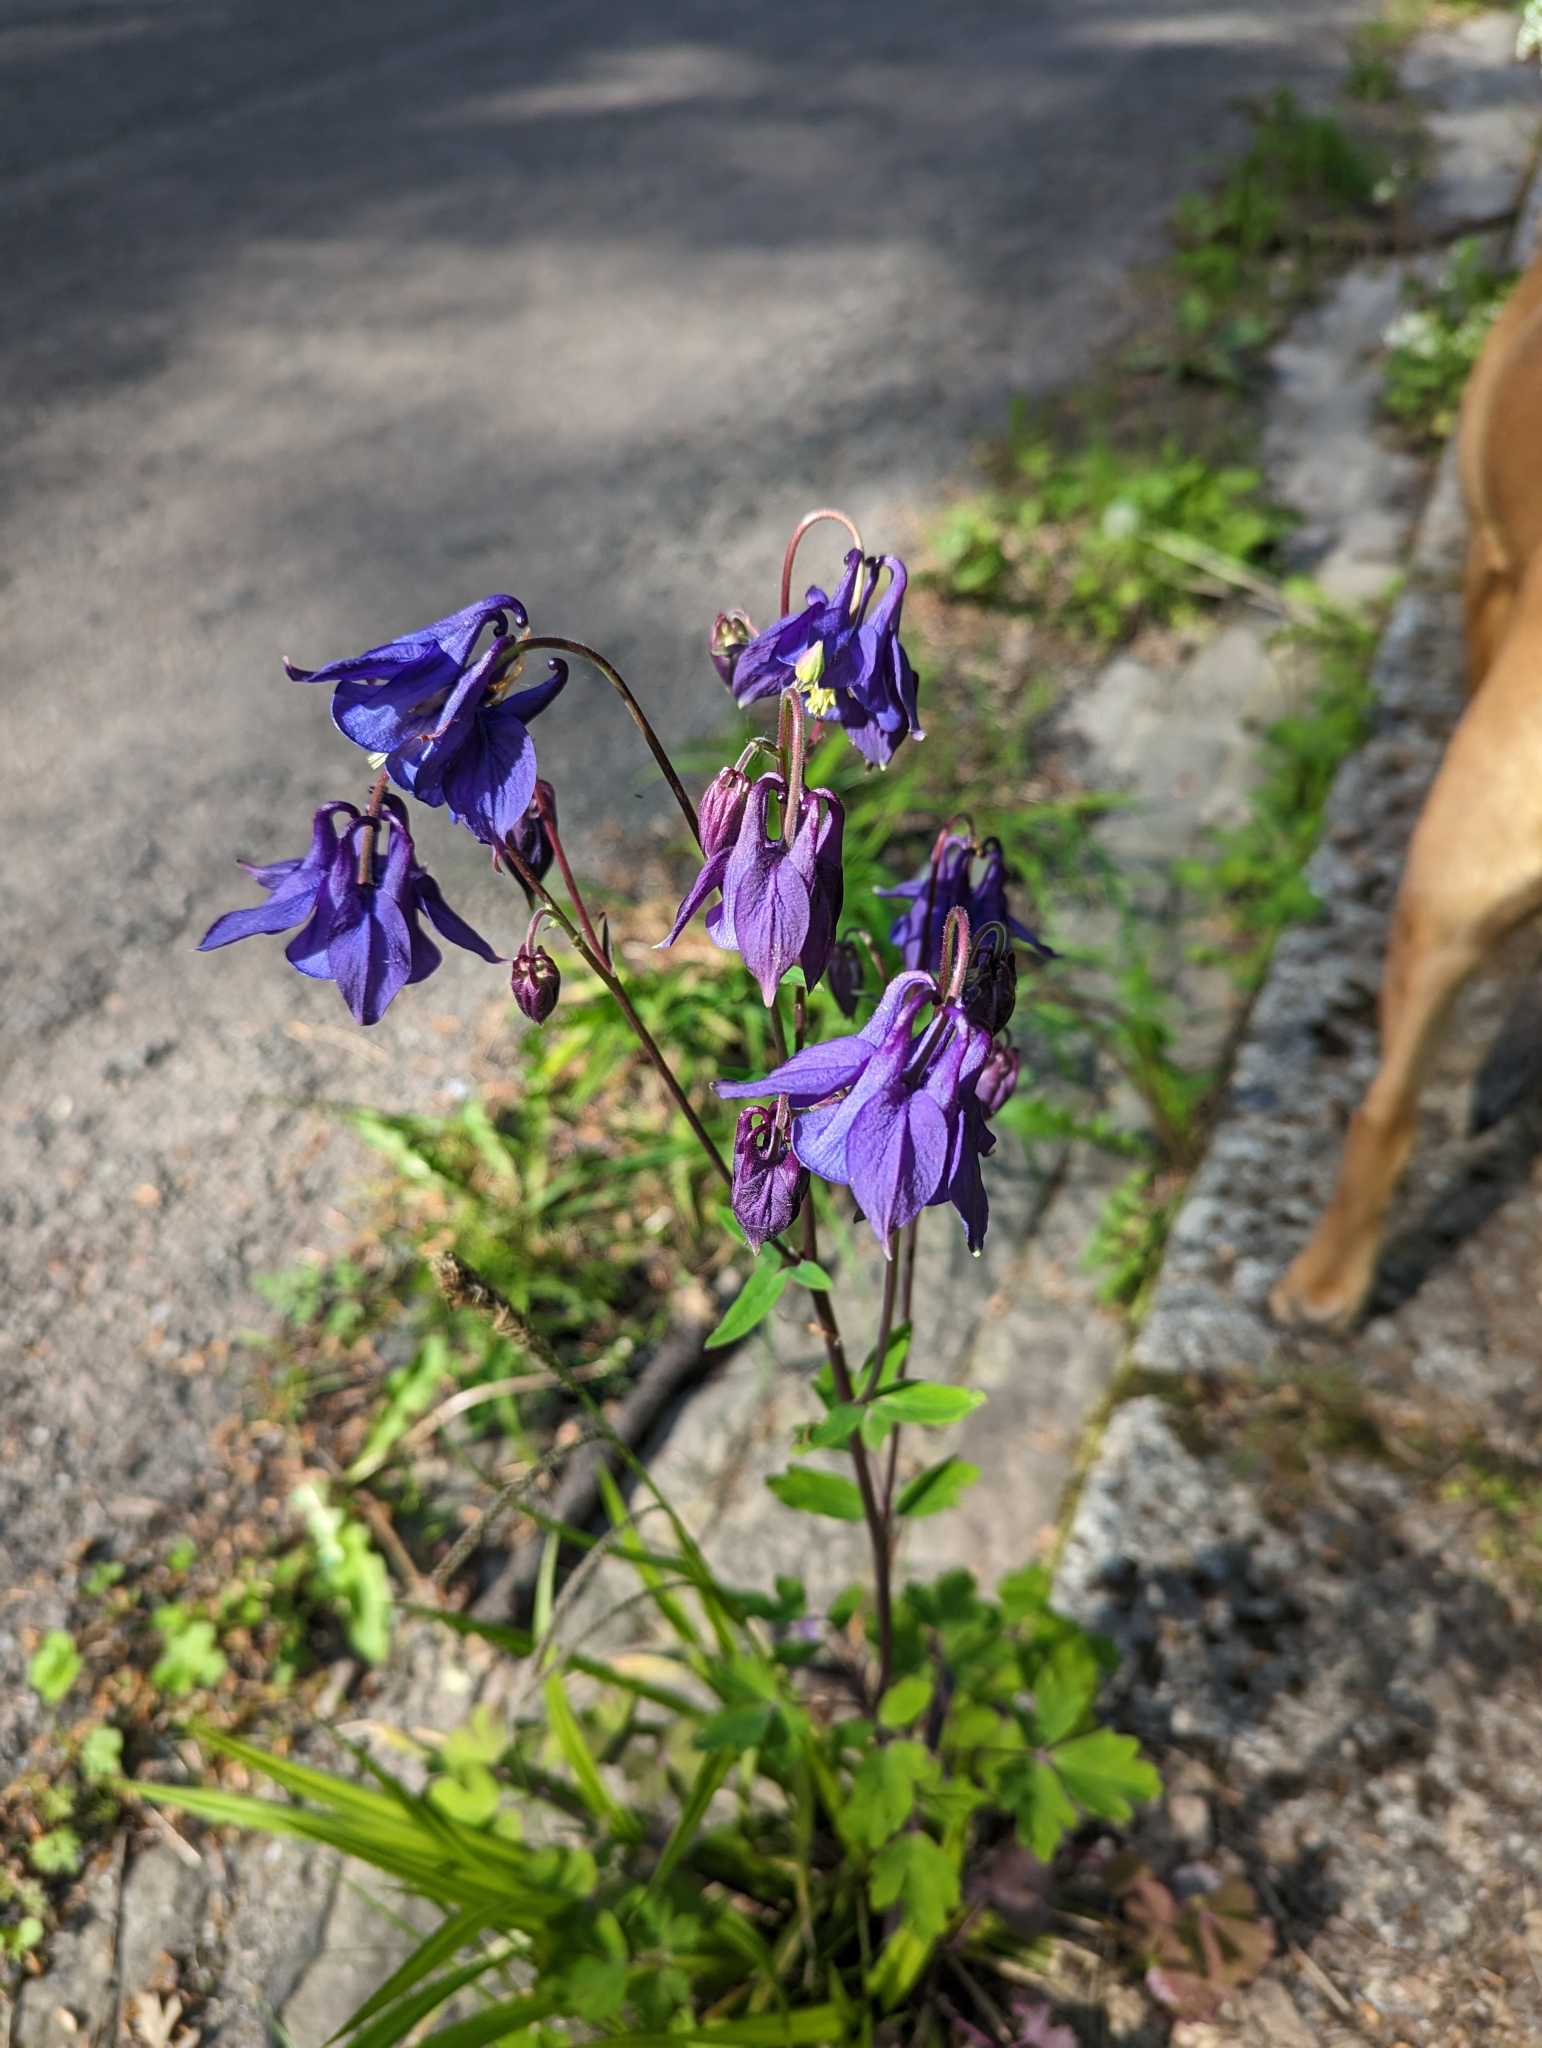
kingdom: Plantae
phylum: Tracheophyta
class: Magnoliopsida
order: Ranunculales
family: Ranunculaceae
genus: Aquilegia
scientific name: Aquilegia vulgaris
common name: Columbine
